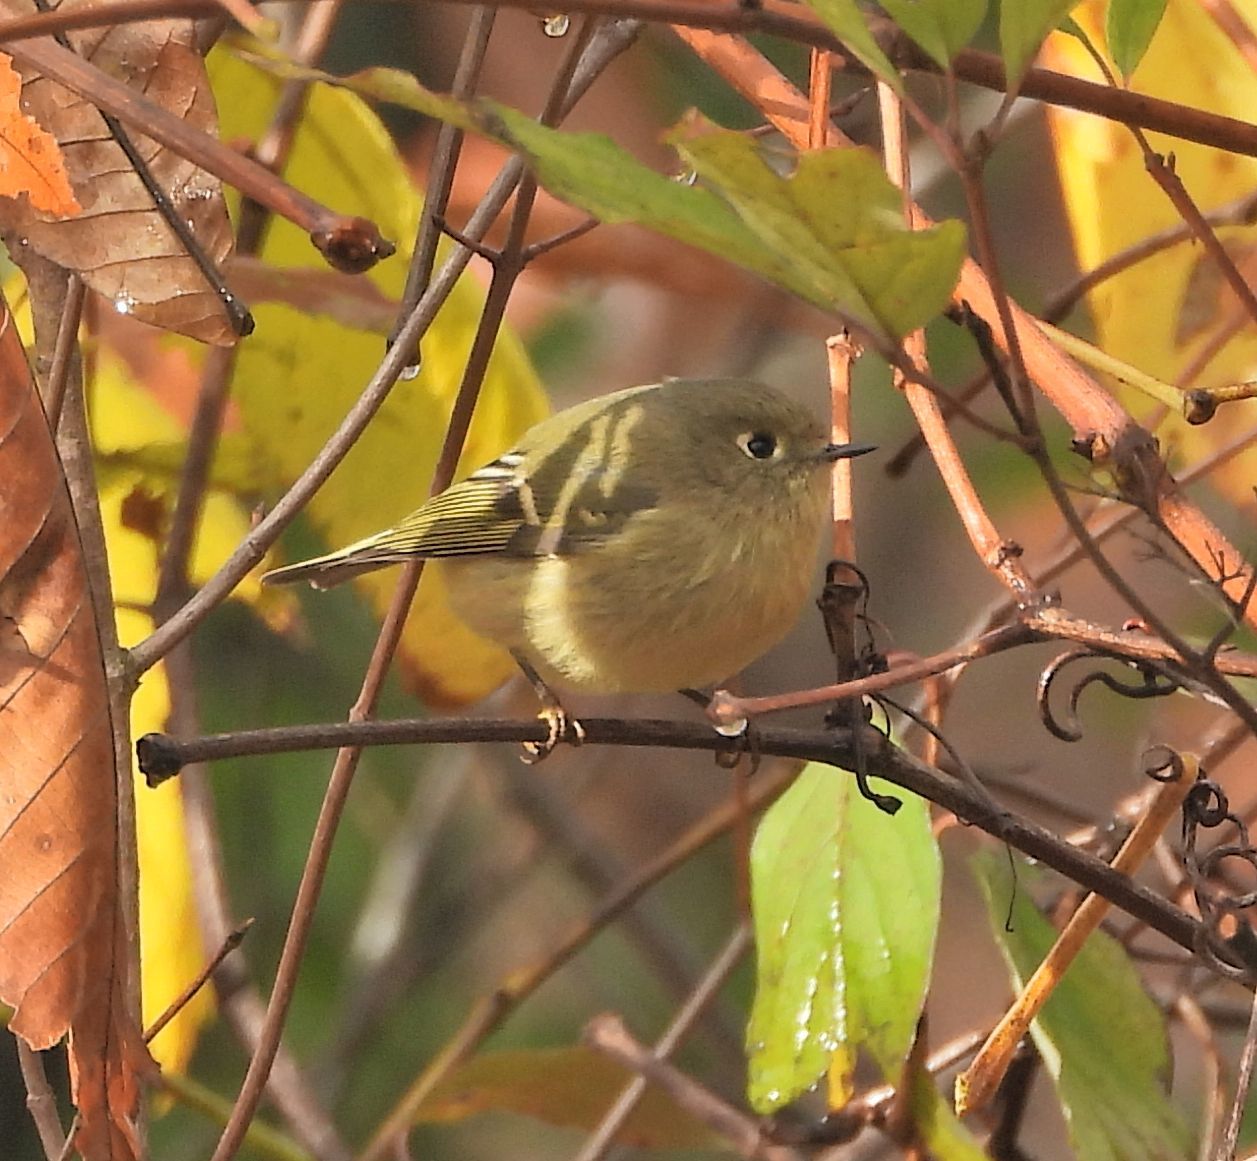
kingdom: Animalia
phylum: Chordata
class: Aves
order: Passeriformes
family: Regulidae
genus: Regulus
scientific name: Regulus calendula
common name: Ruby-crowned kinglet
